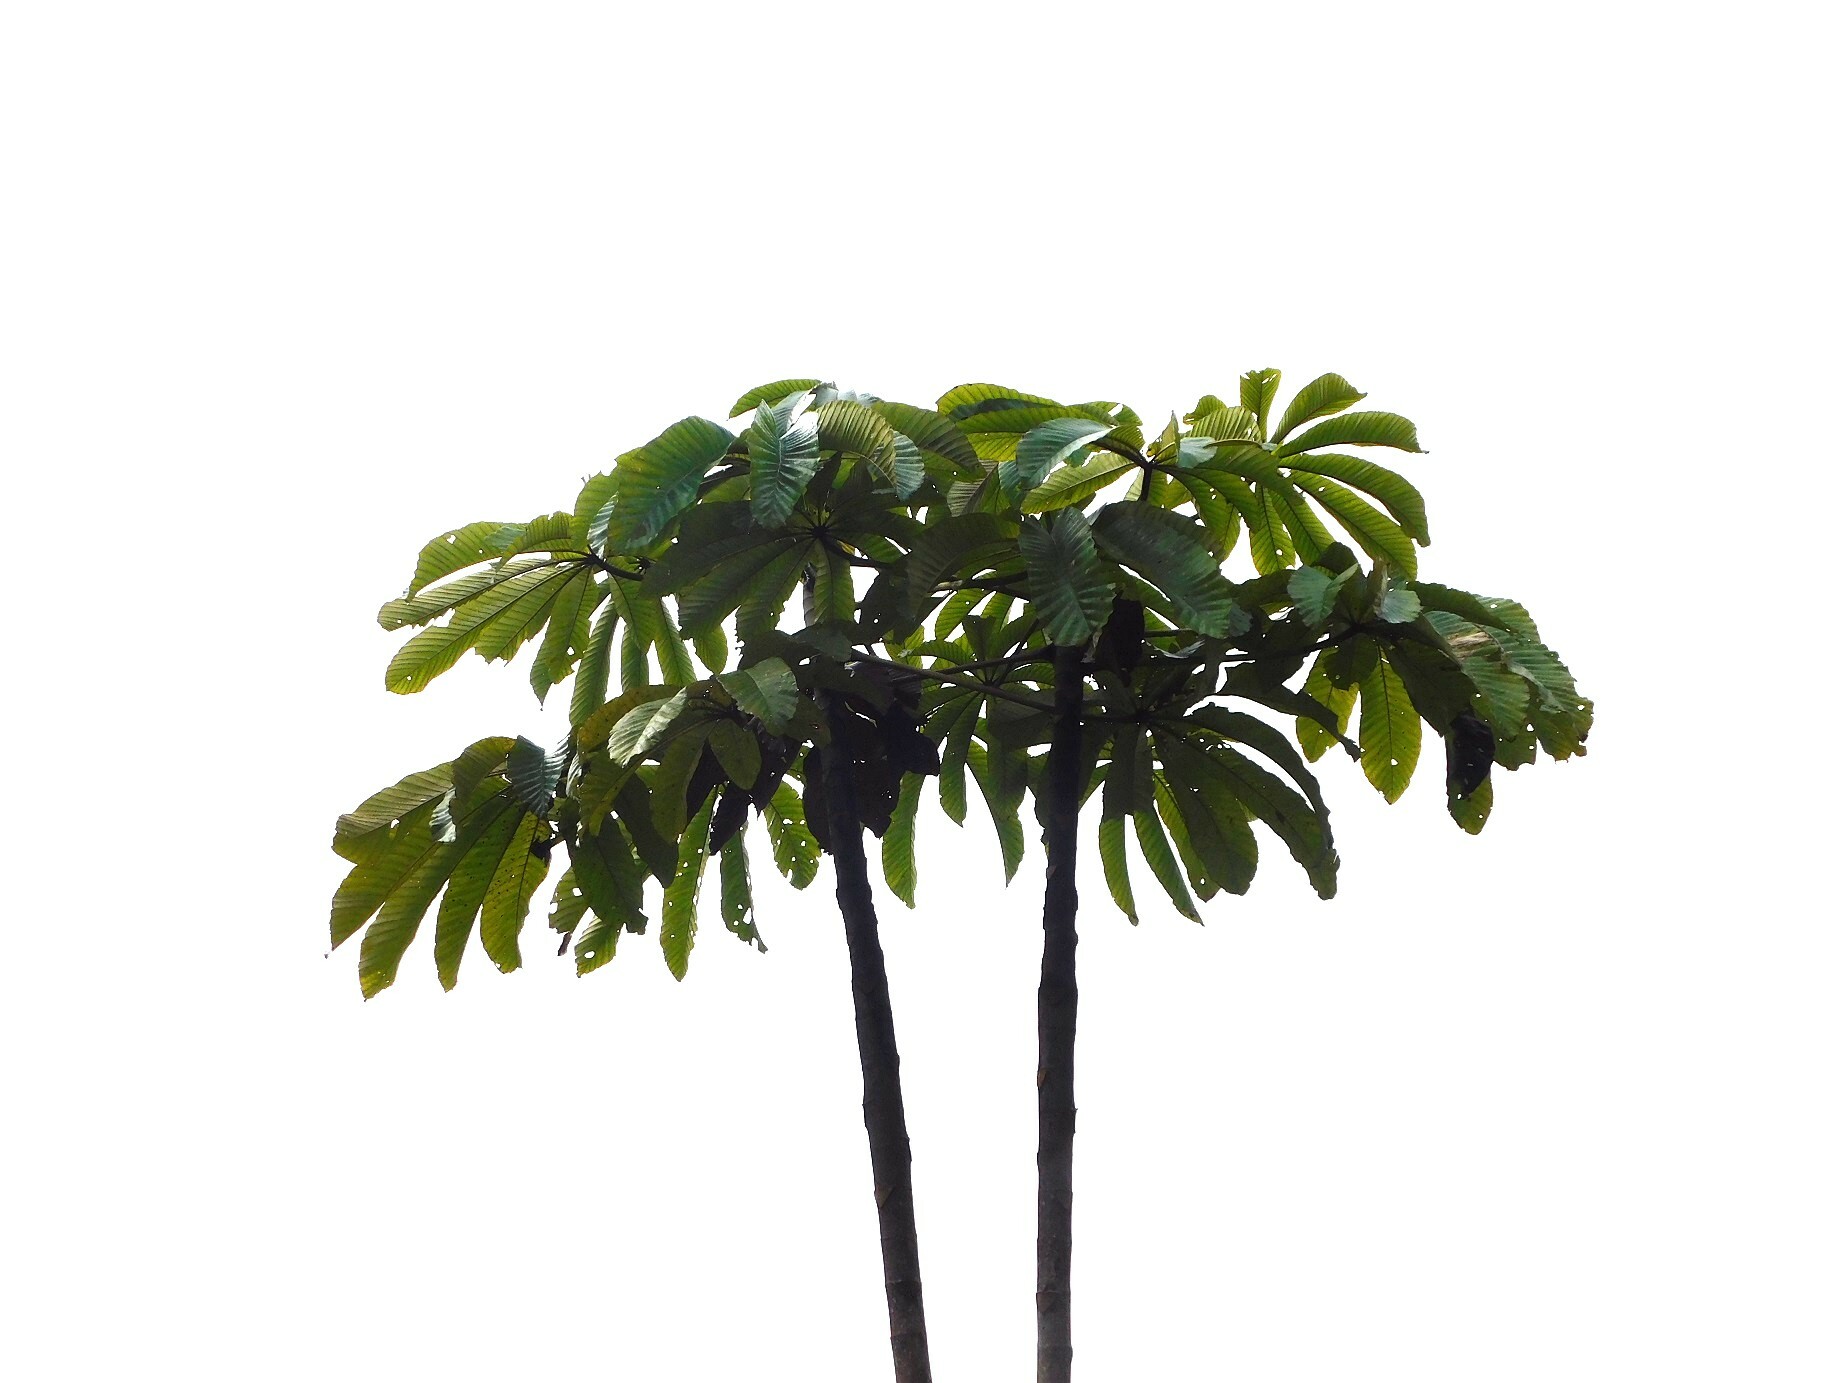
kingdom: Plantae
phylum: Tracheophyta
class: Magnoliopsida
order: Rosales
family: Urticaceae
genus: Cecropia
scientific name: Cecropia angustifolia
